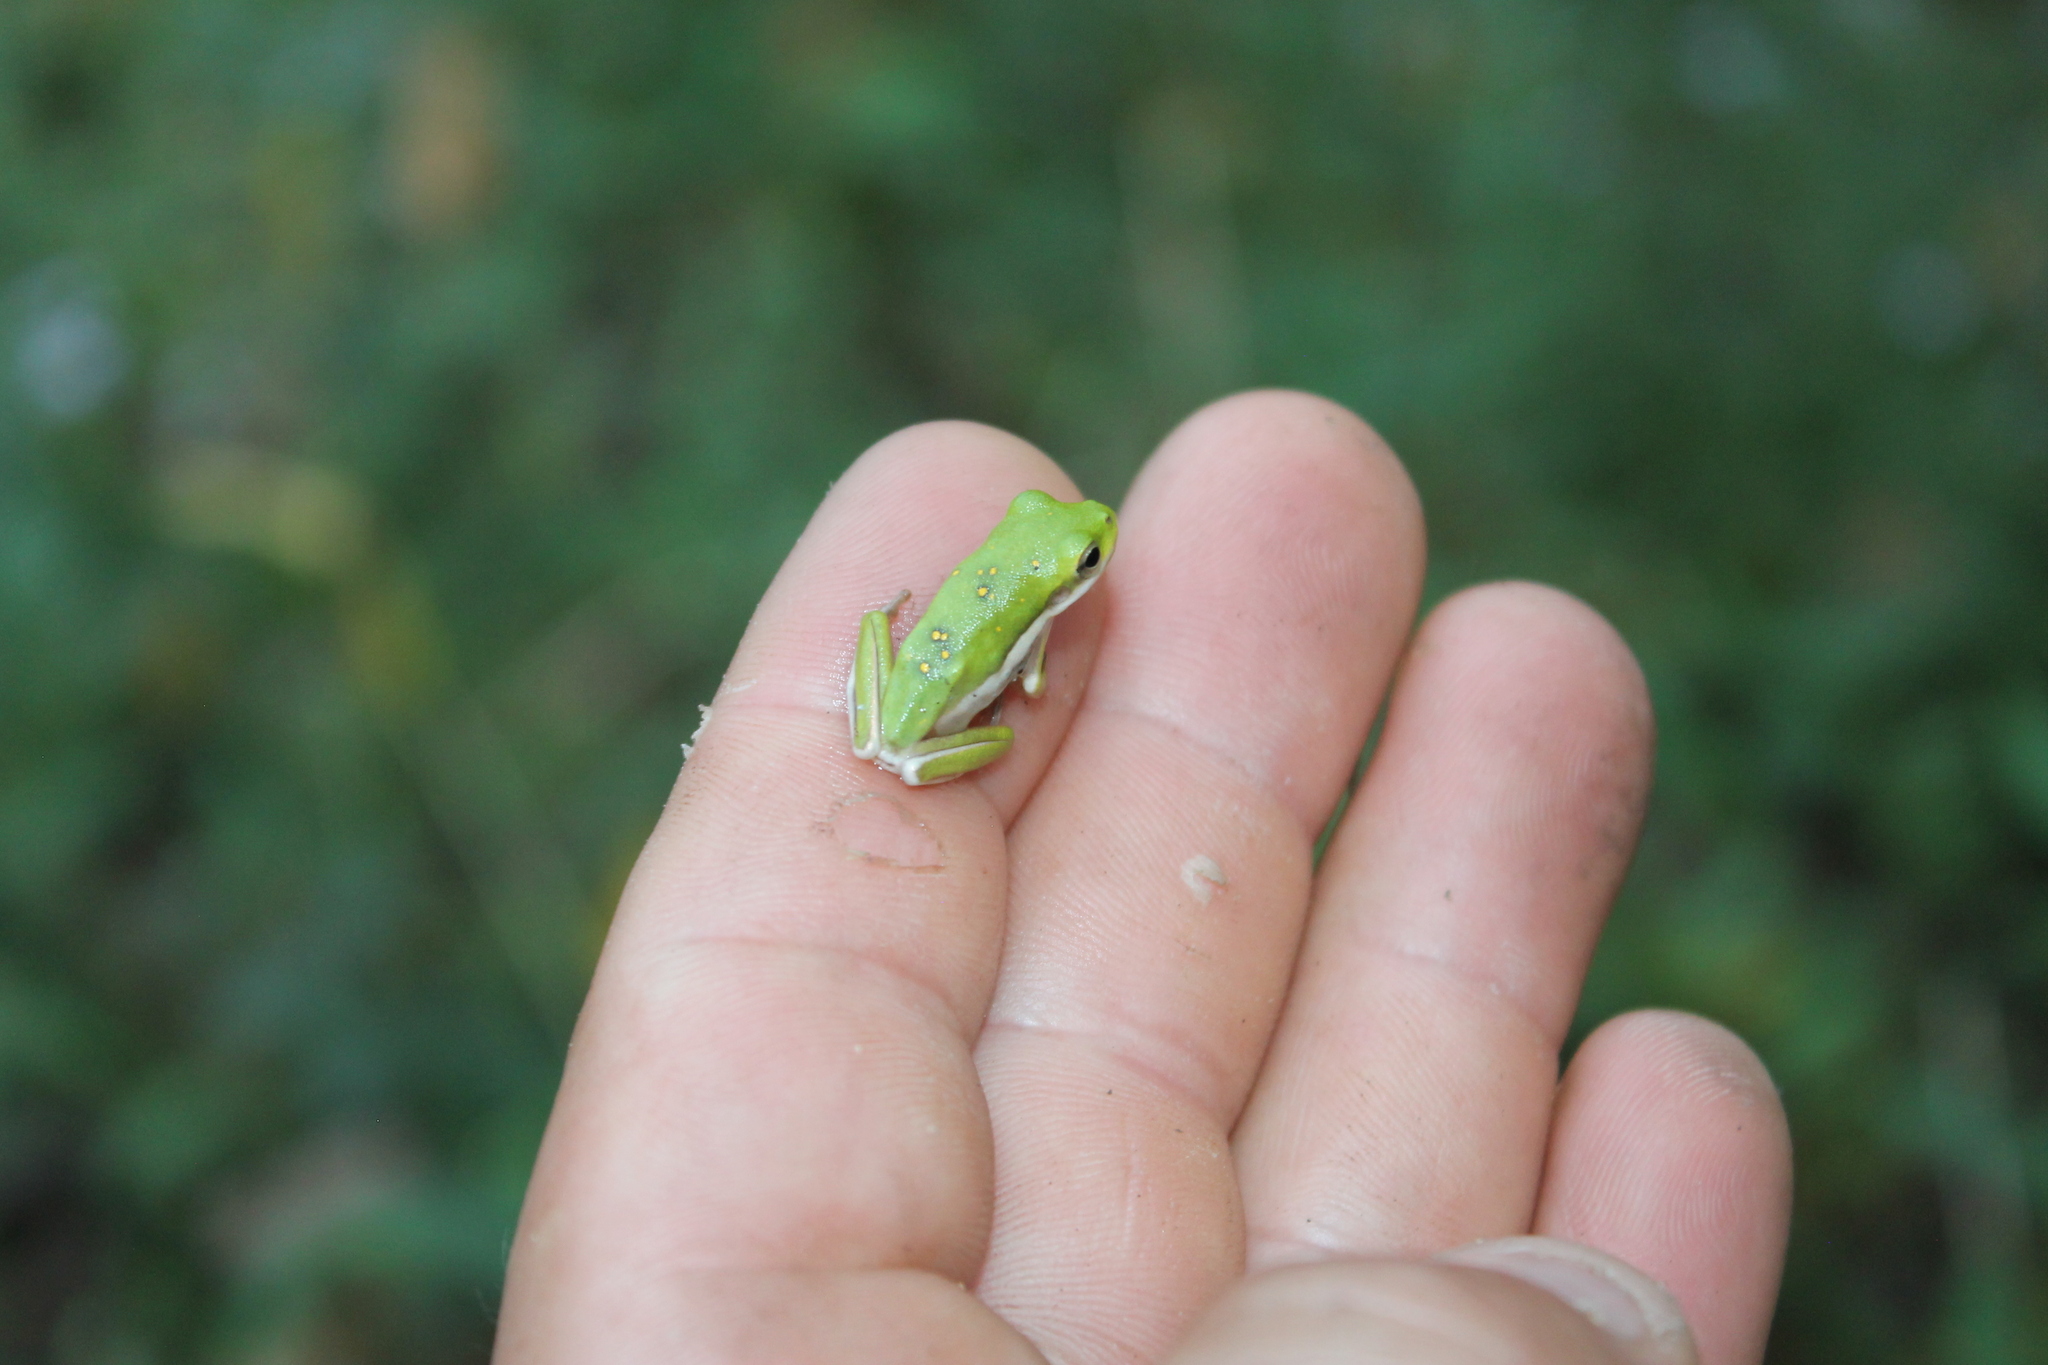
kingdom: Animalia
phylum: Chordata
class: Amphibia
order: Anura
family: Hylidae
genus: Dryophytes
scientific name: Dryophytes cinereus
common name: Green treefrog
